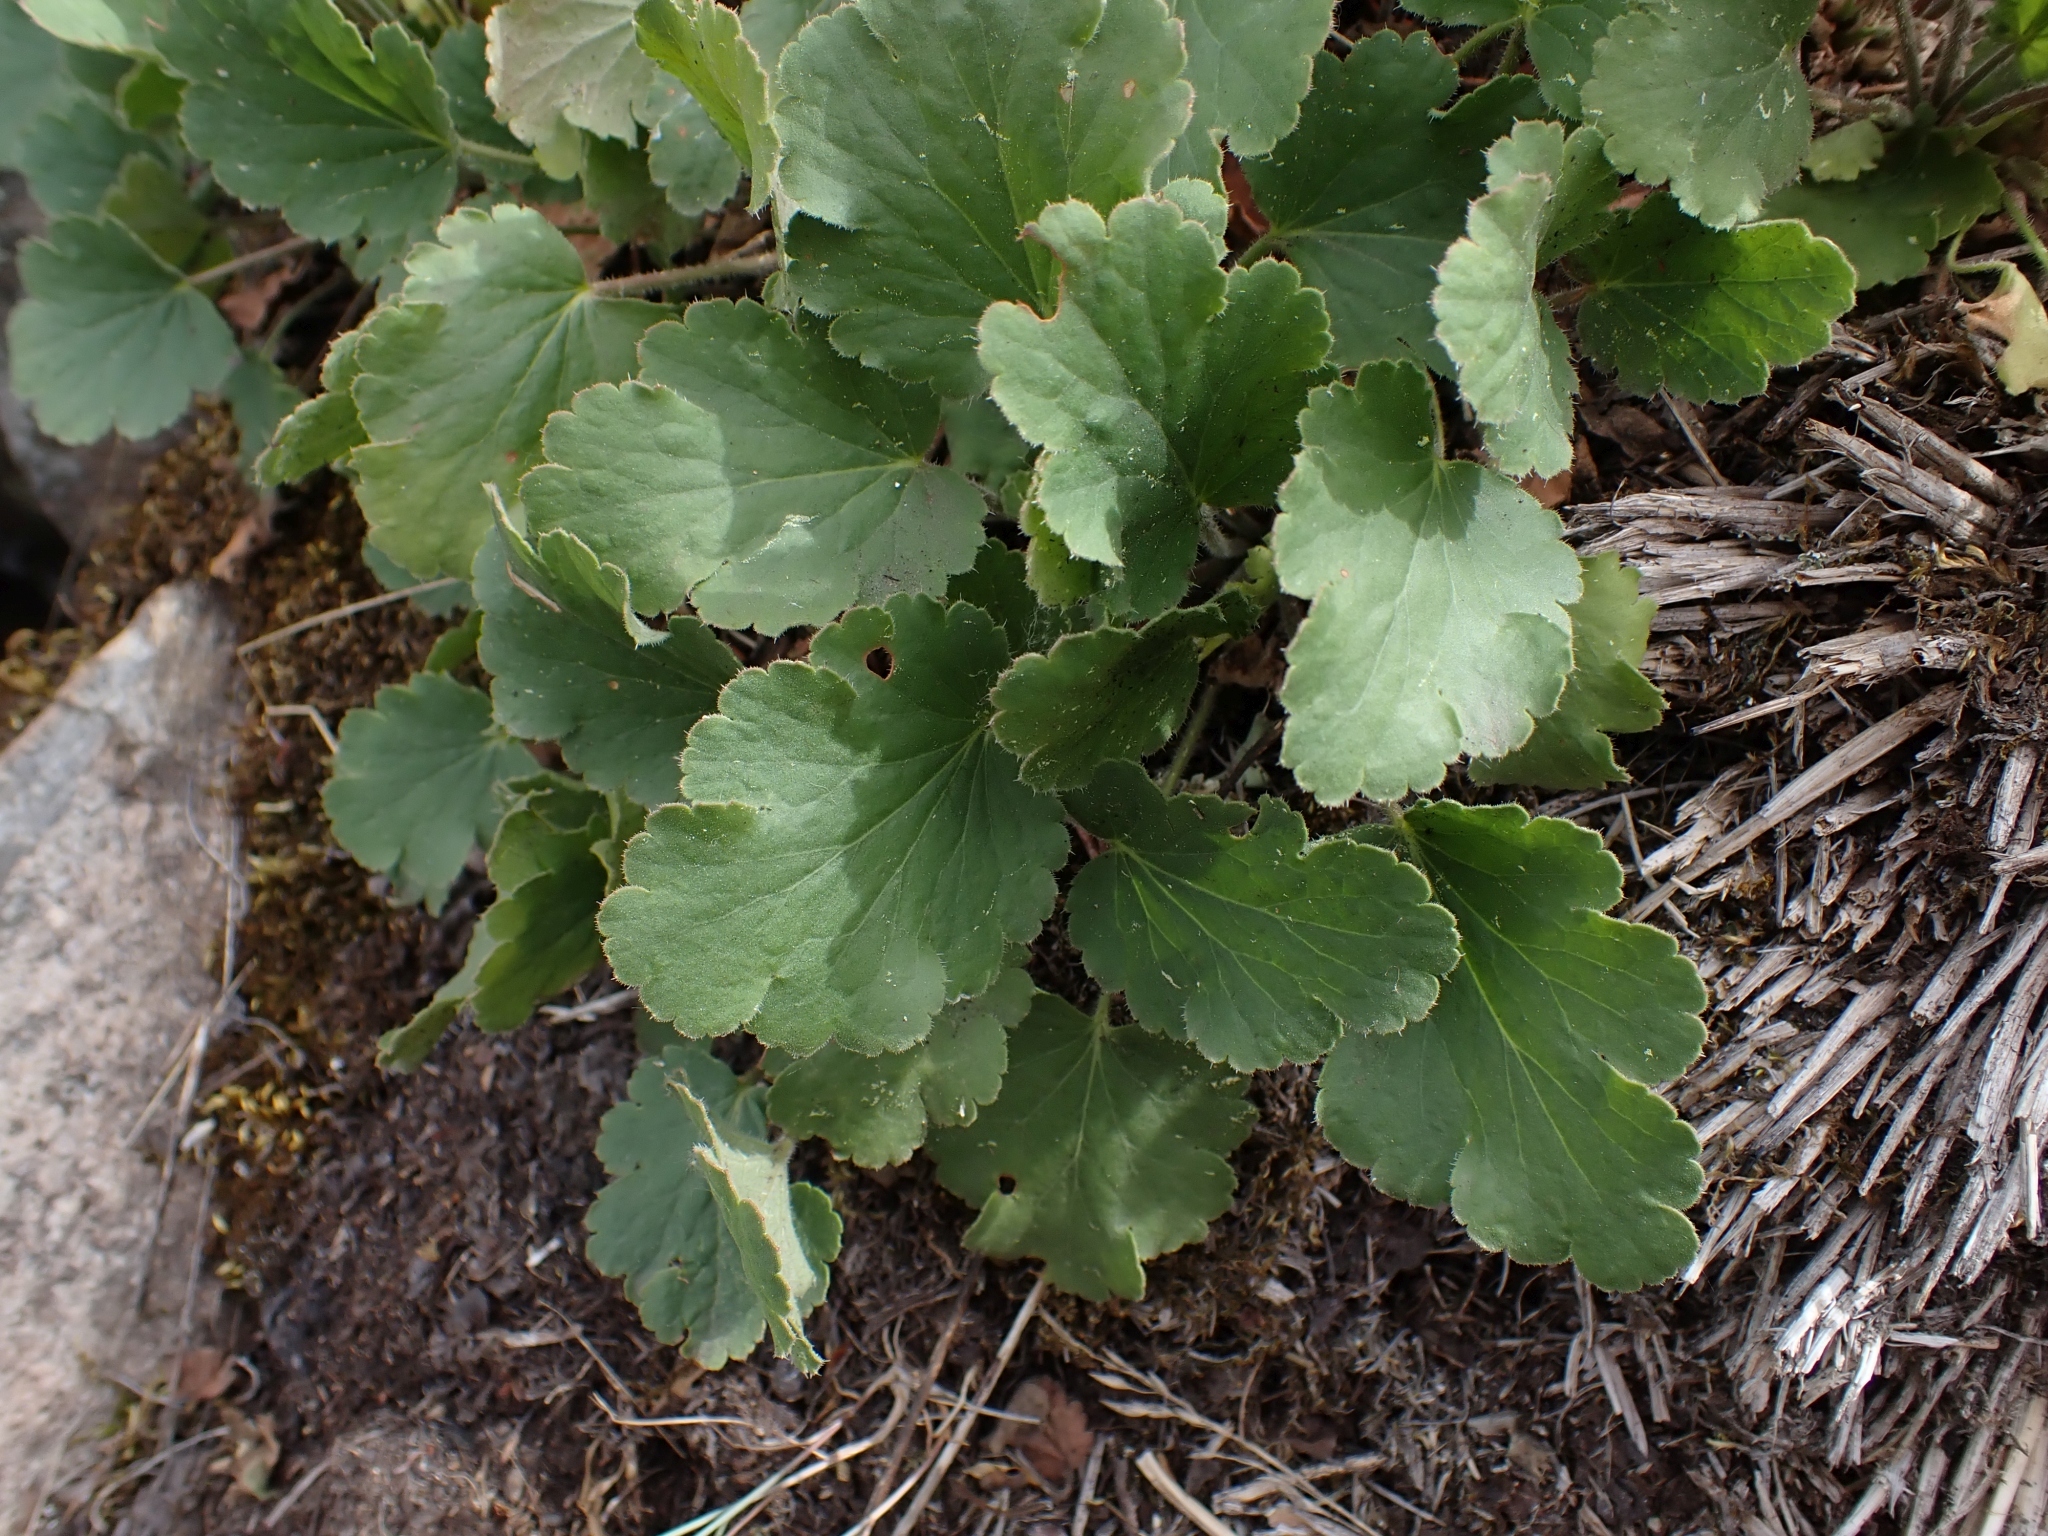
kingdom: Plantae
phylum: Tracheophyta
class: Magnoliopsida
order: Saxifragales
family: Saxifragaceae
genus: Heuchera
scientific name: Heuchera cylindrica
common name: Mat alumroot
